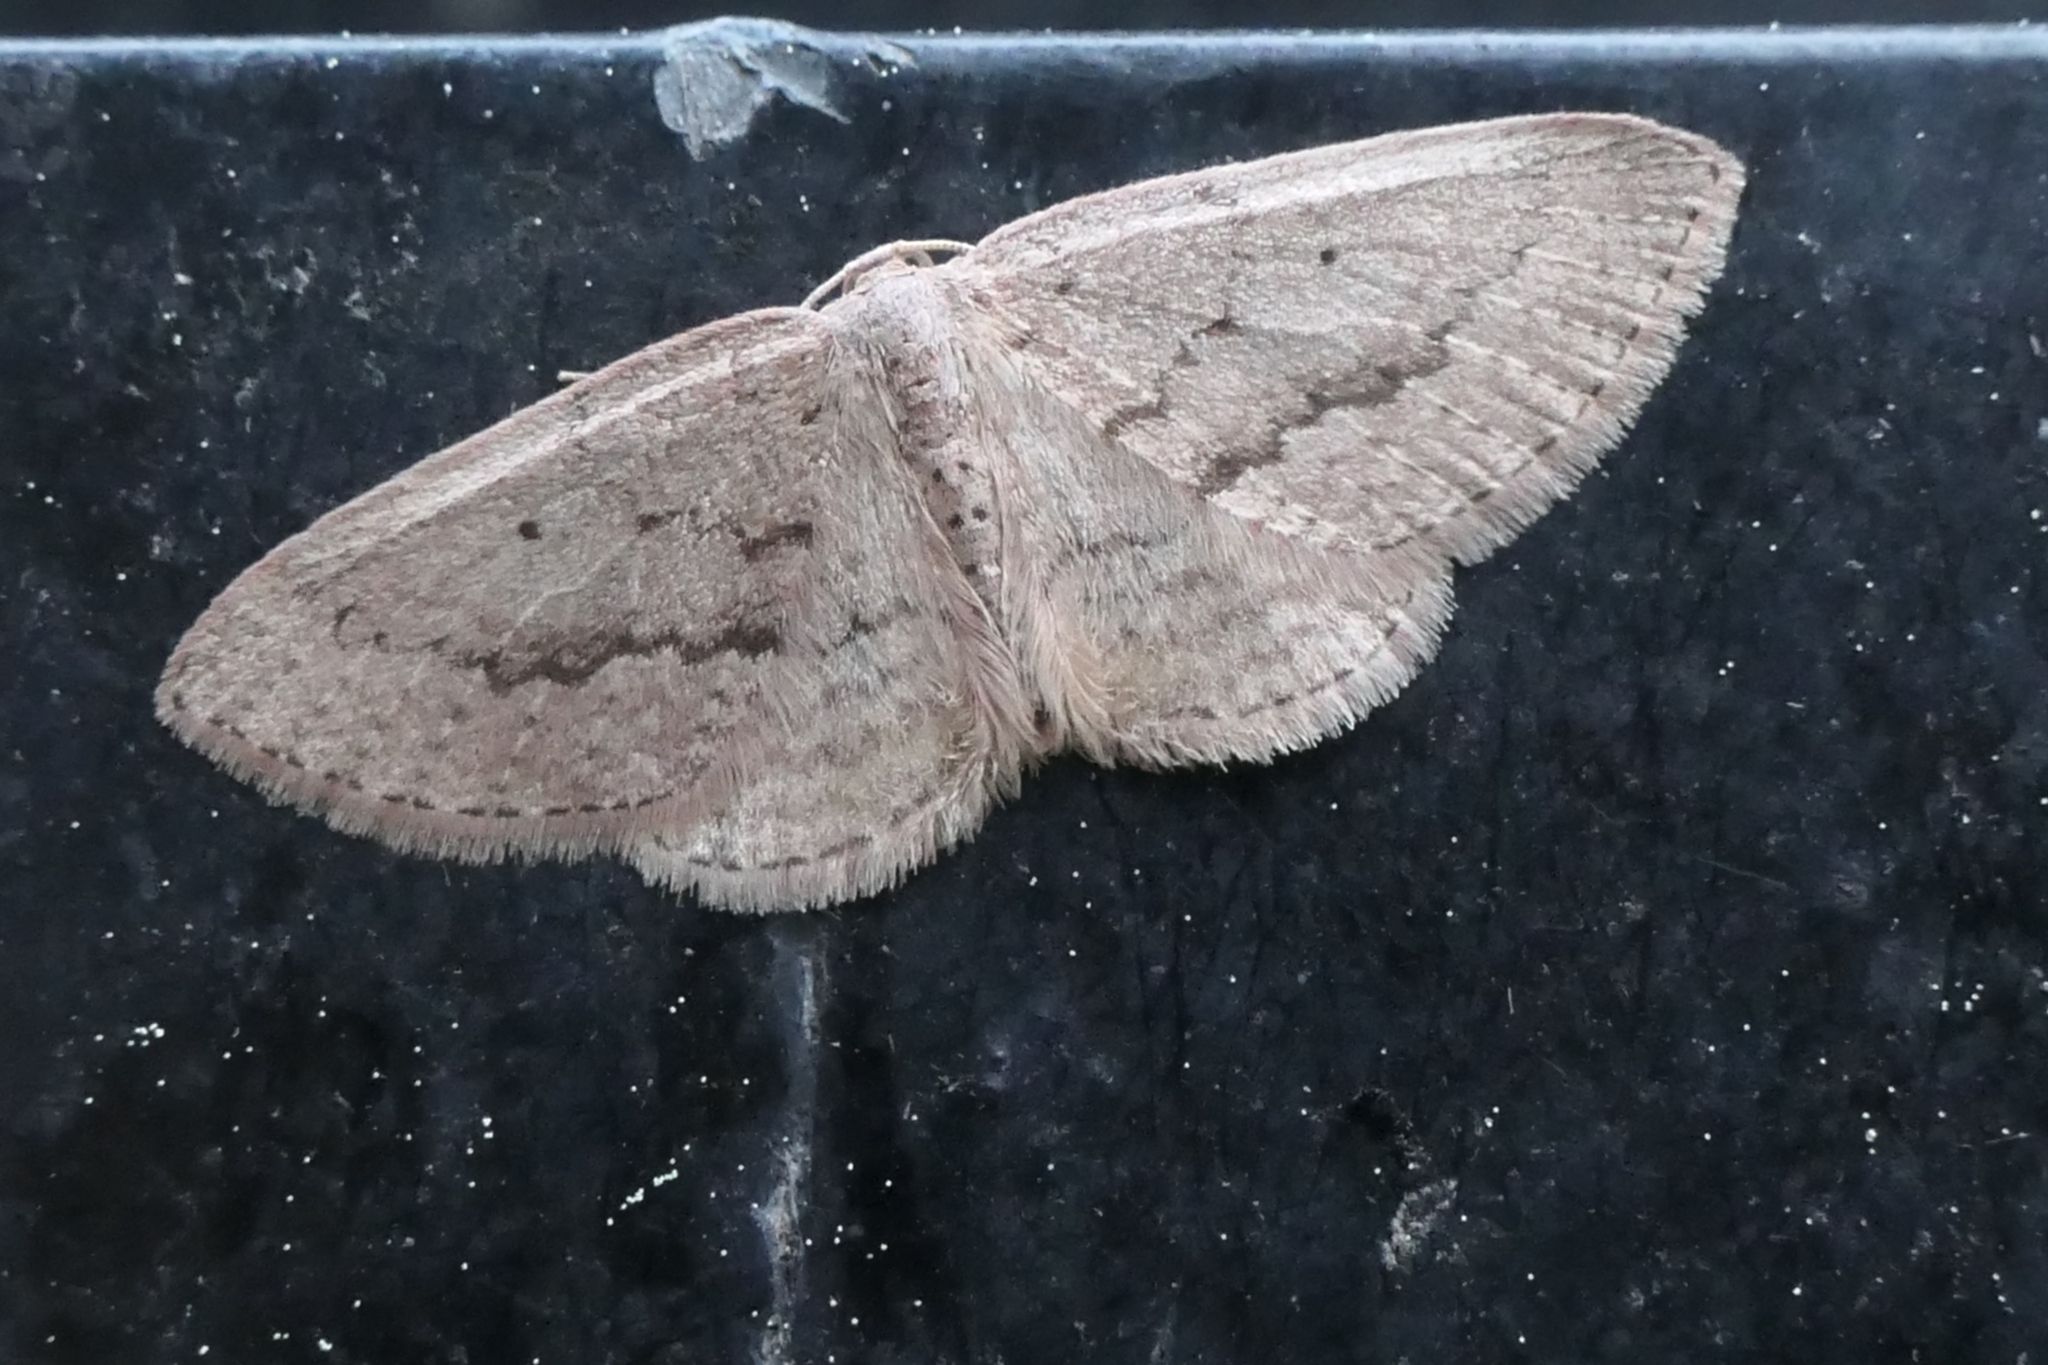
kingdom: Animalia
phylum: Arthropoda
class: Insecta
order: Lepidoptera
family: Geometridae
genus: Poecilasthena
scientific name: Poecilasthena schistaria
